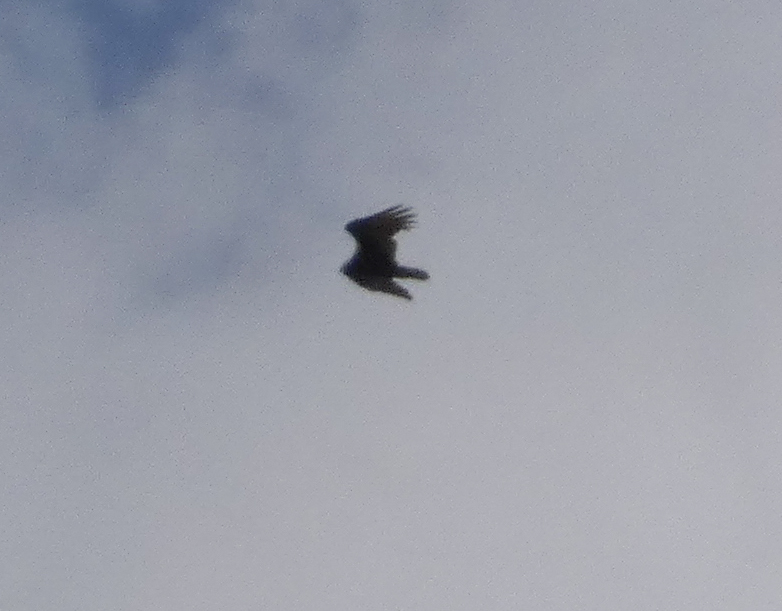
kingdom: Animalia
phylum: Chordata
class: Aves
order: Accipitriformes
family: Cathartidae
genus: Cathartes
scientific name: Cathartes aura
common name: Turkey vulture
